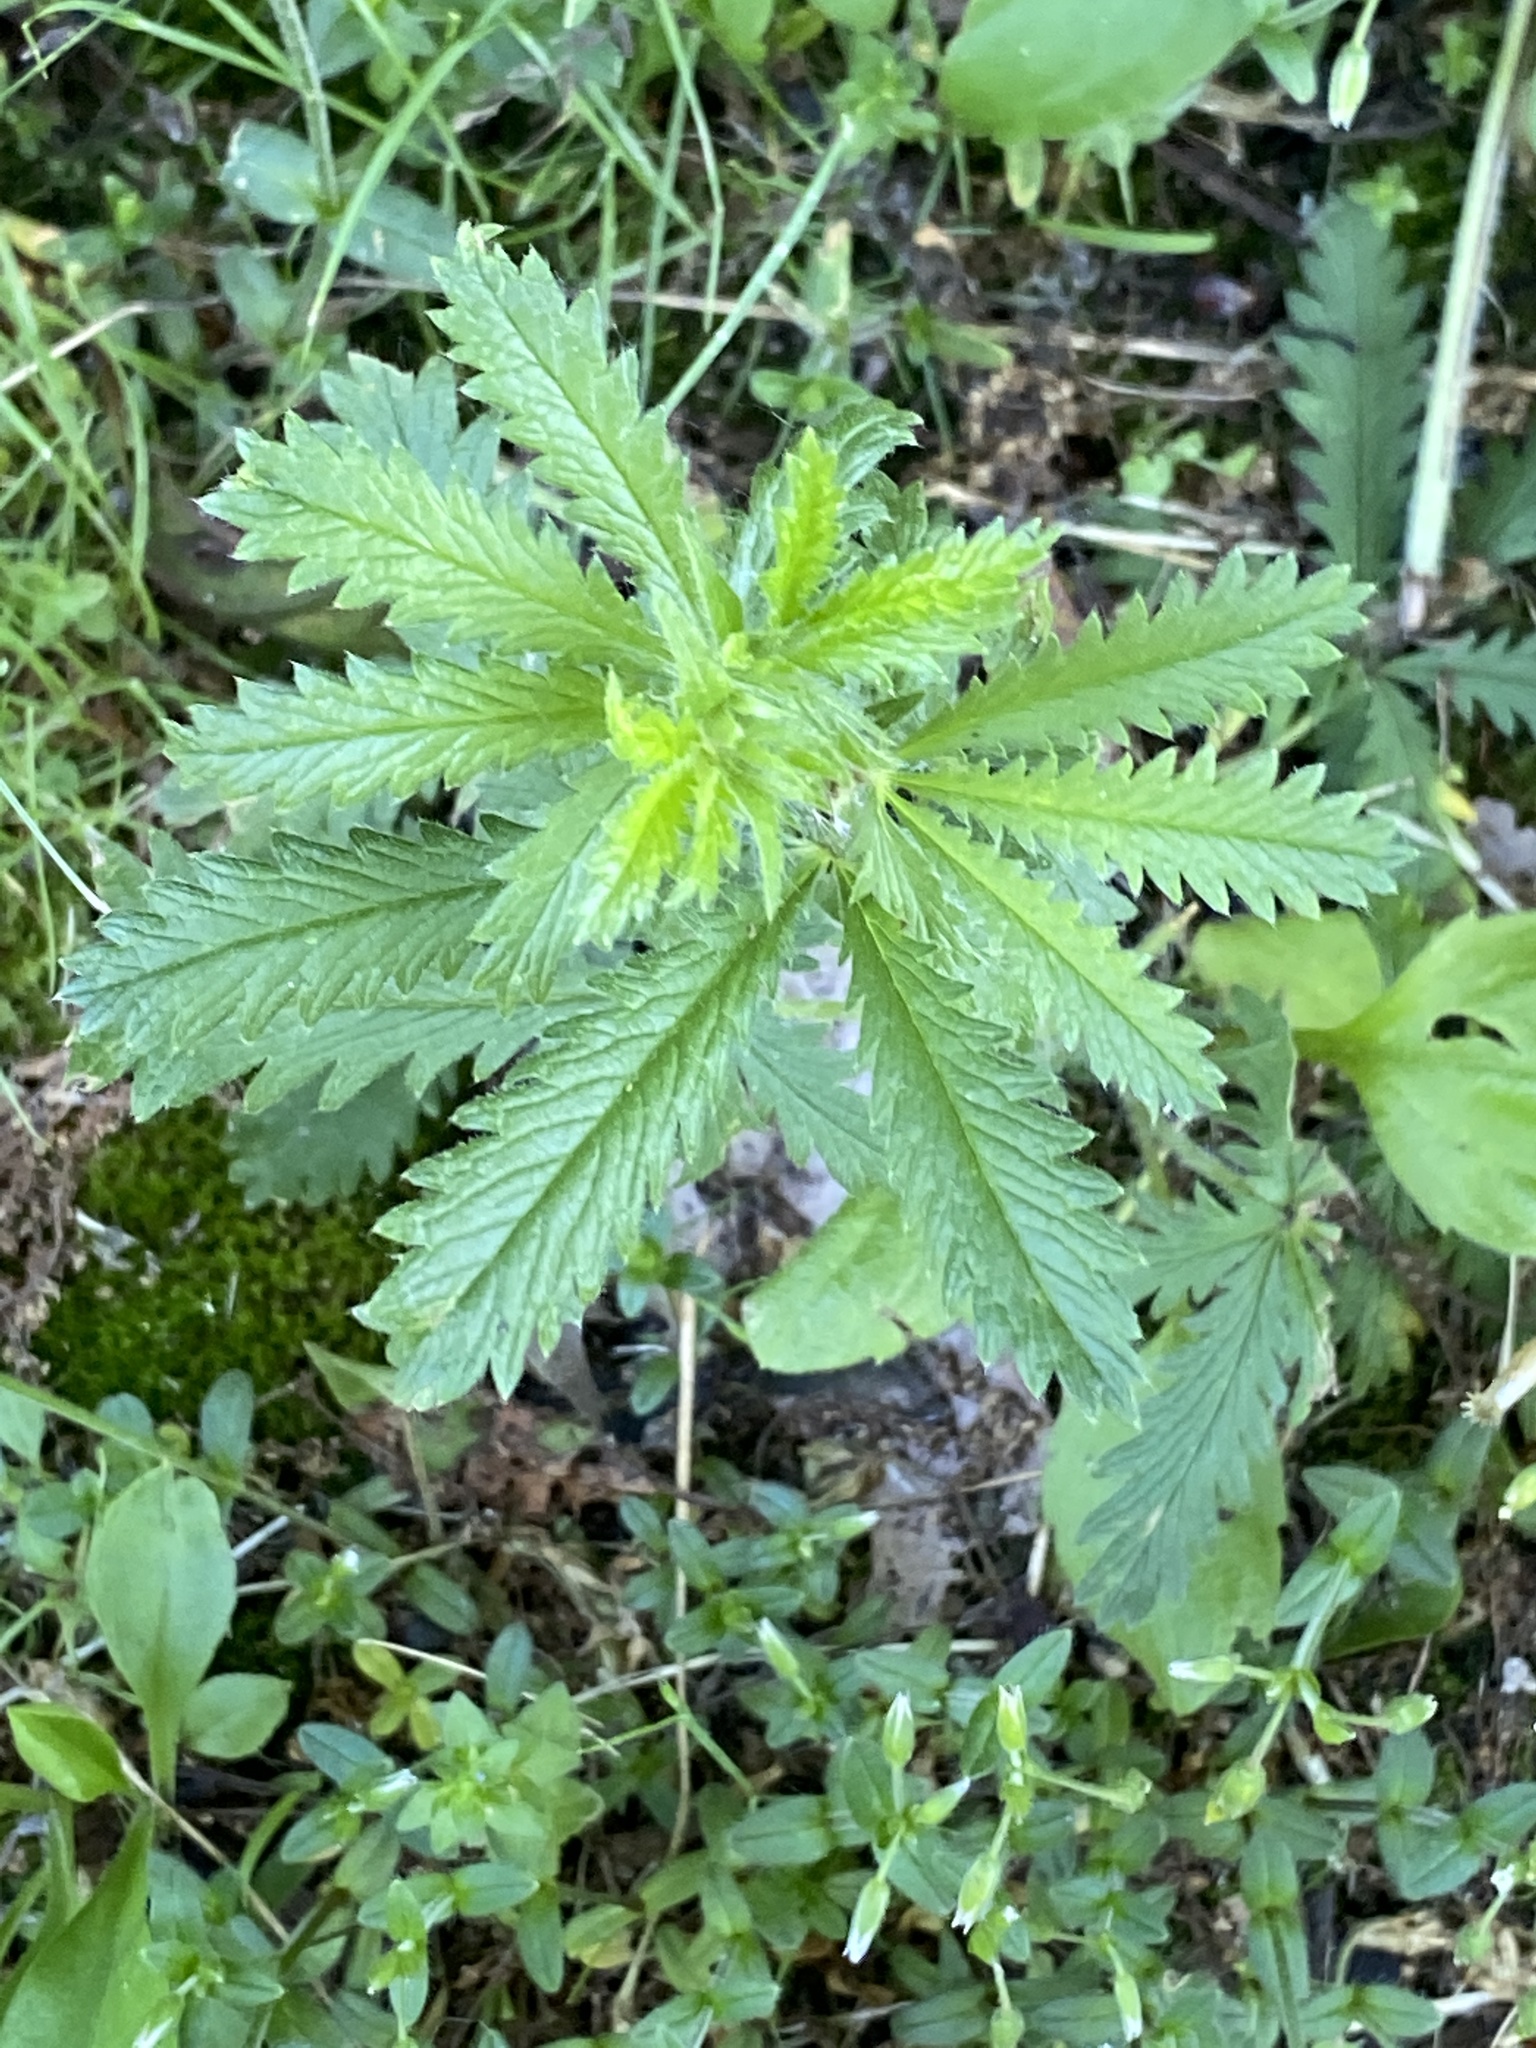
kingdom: Plantae
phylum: Tracheophyta
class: Magnoliopsida
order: Rosales
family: Rosaceae
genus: Potentilla
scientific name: Potentilla recta
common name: Sulphur cinquefoil
